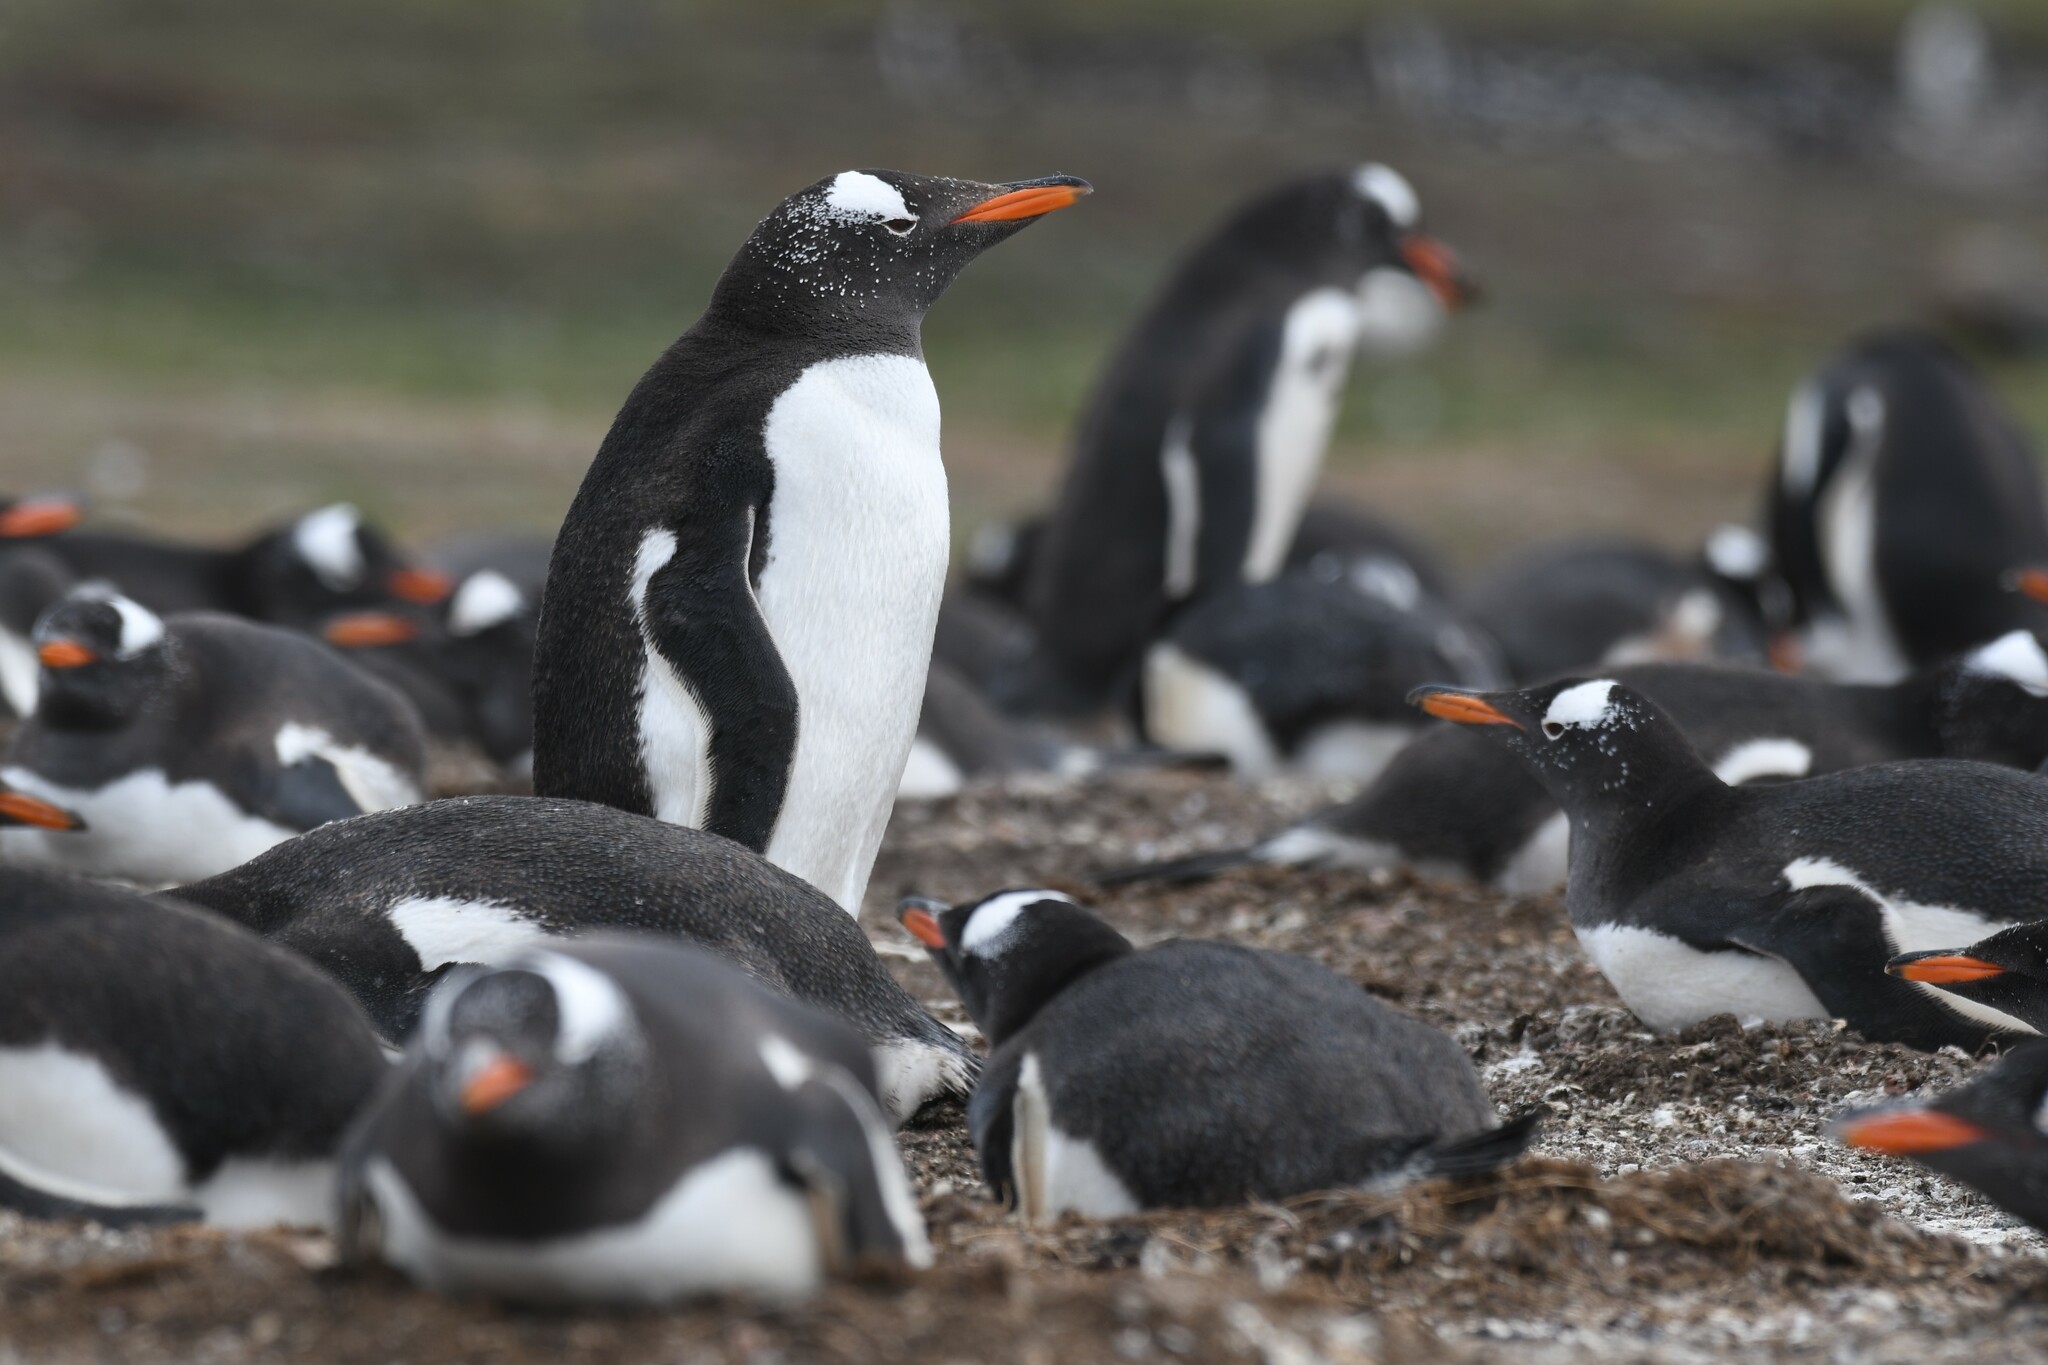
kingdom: Animalia
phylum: Chordata
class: Aves
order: Sphenisciformes
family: Spheniscidae
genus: Pygoscelis
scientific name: Pygoscelis papua
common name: Gentoo penguin
